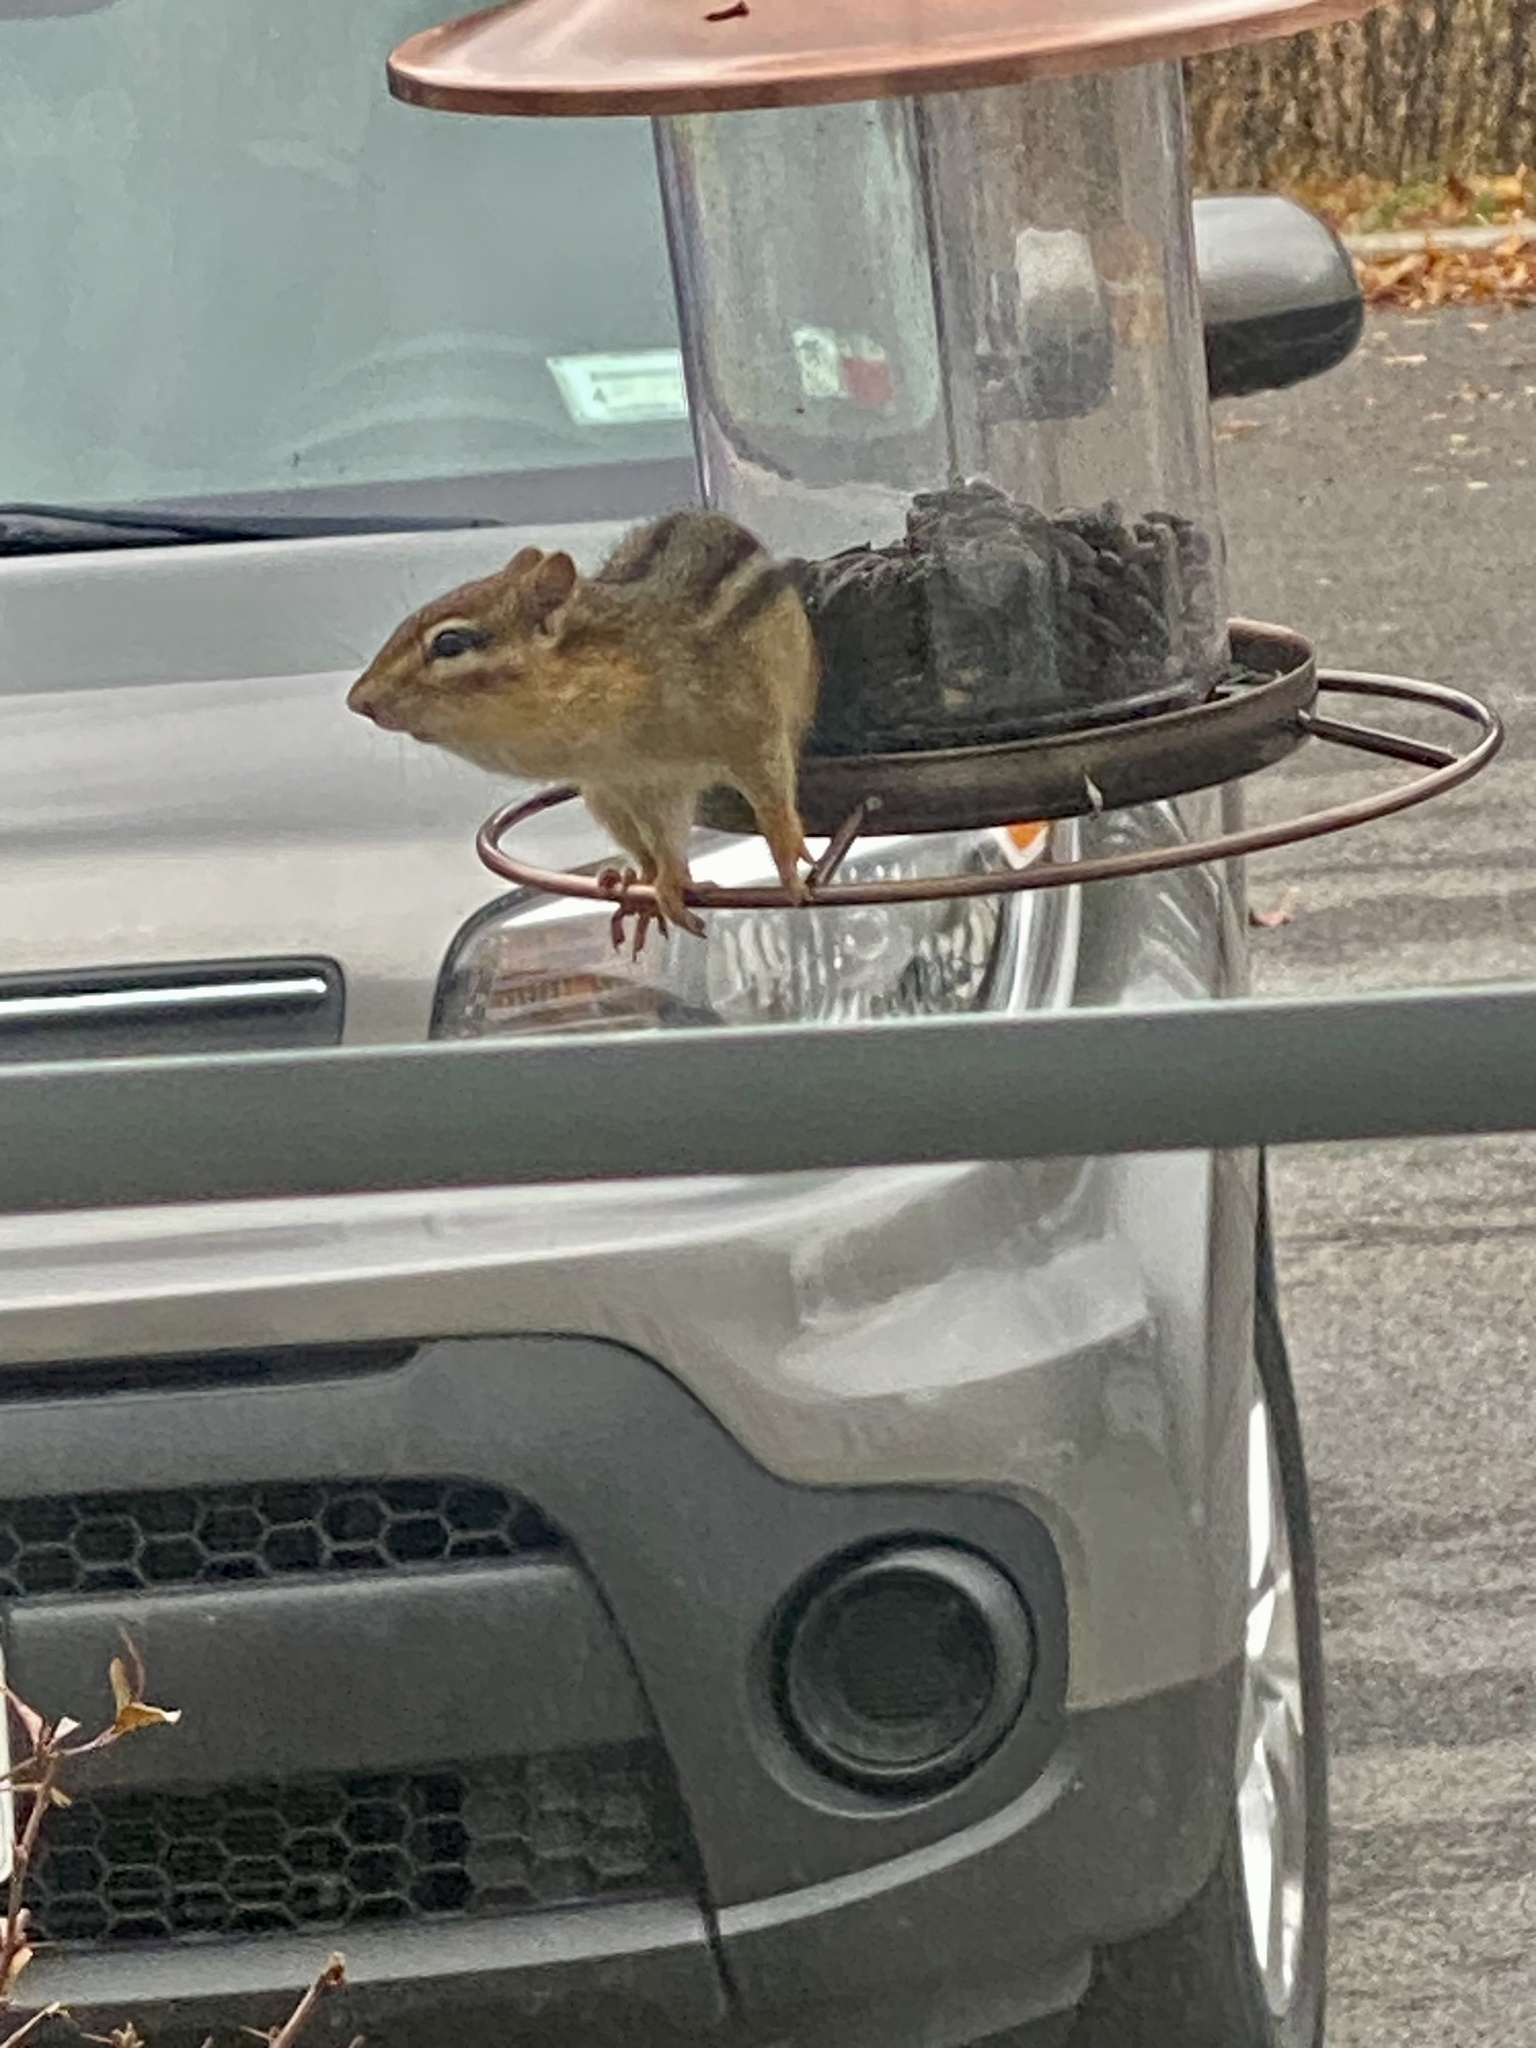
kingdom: Animalia
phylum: Chordata
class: Mammalia
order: Rodentia
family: Sciuridae
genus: Tamias
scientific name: Tamias striatus
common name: Eastern chipmunk
